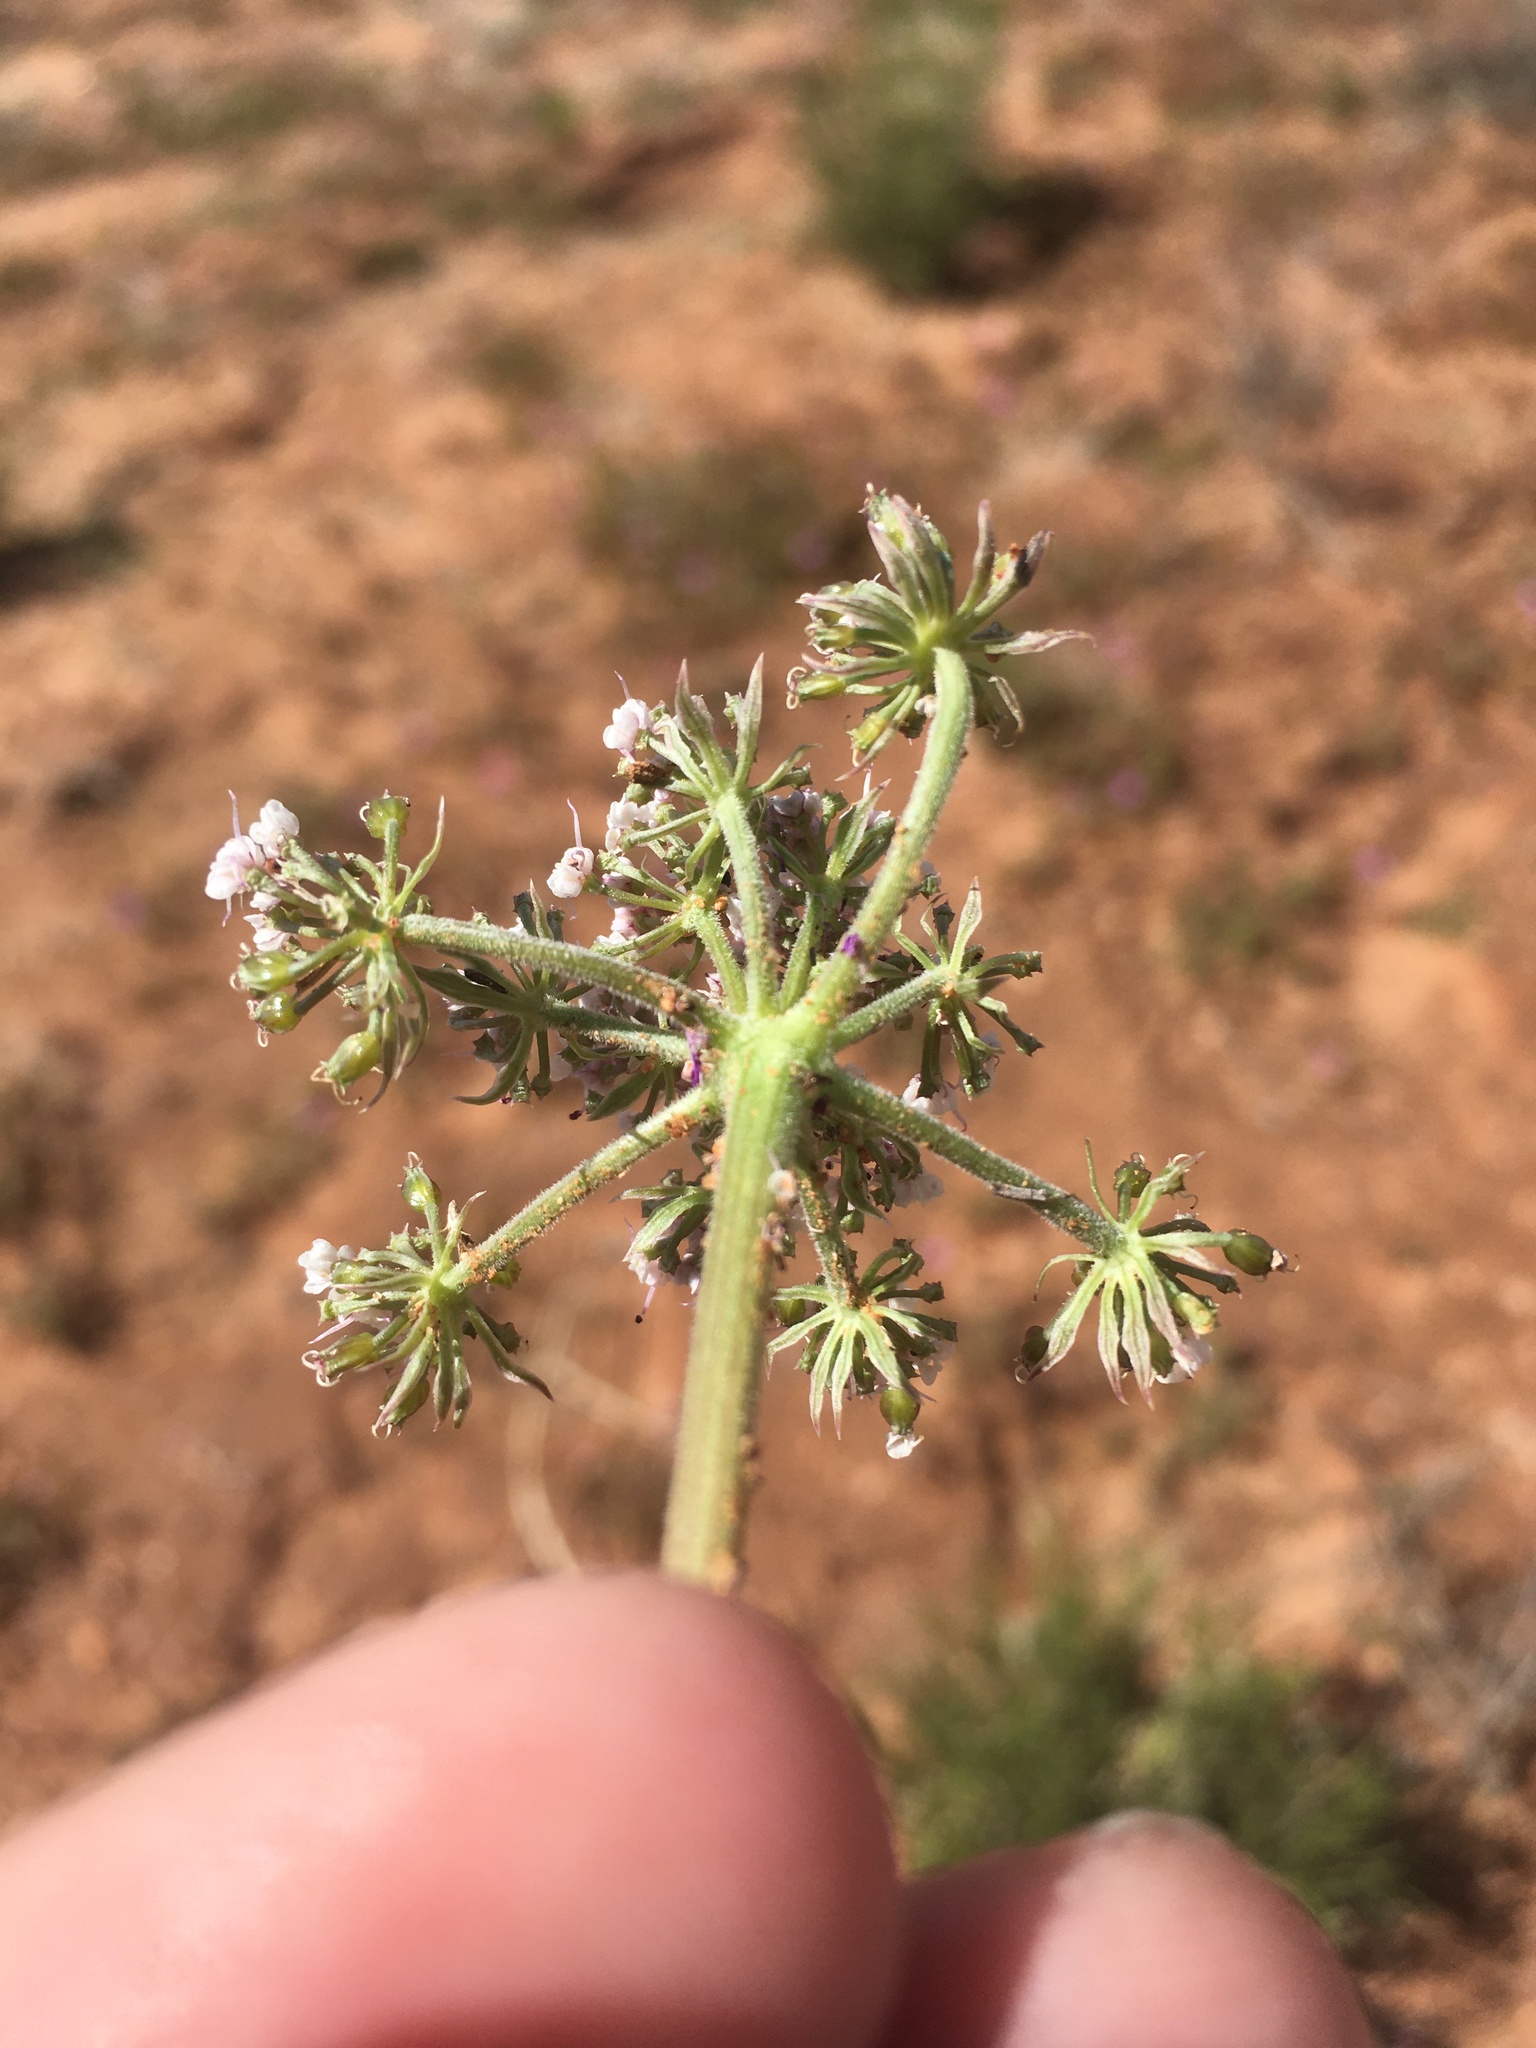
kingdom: Plantae
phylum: Tracheophyta
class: Magnoliopsida
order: Apiales
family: Apiaceae
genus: Lomatium
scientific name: Lomatium nevadense
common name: Nevada lomatium
